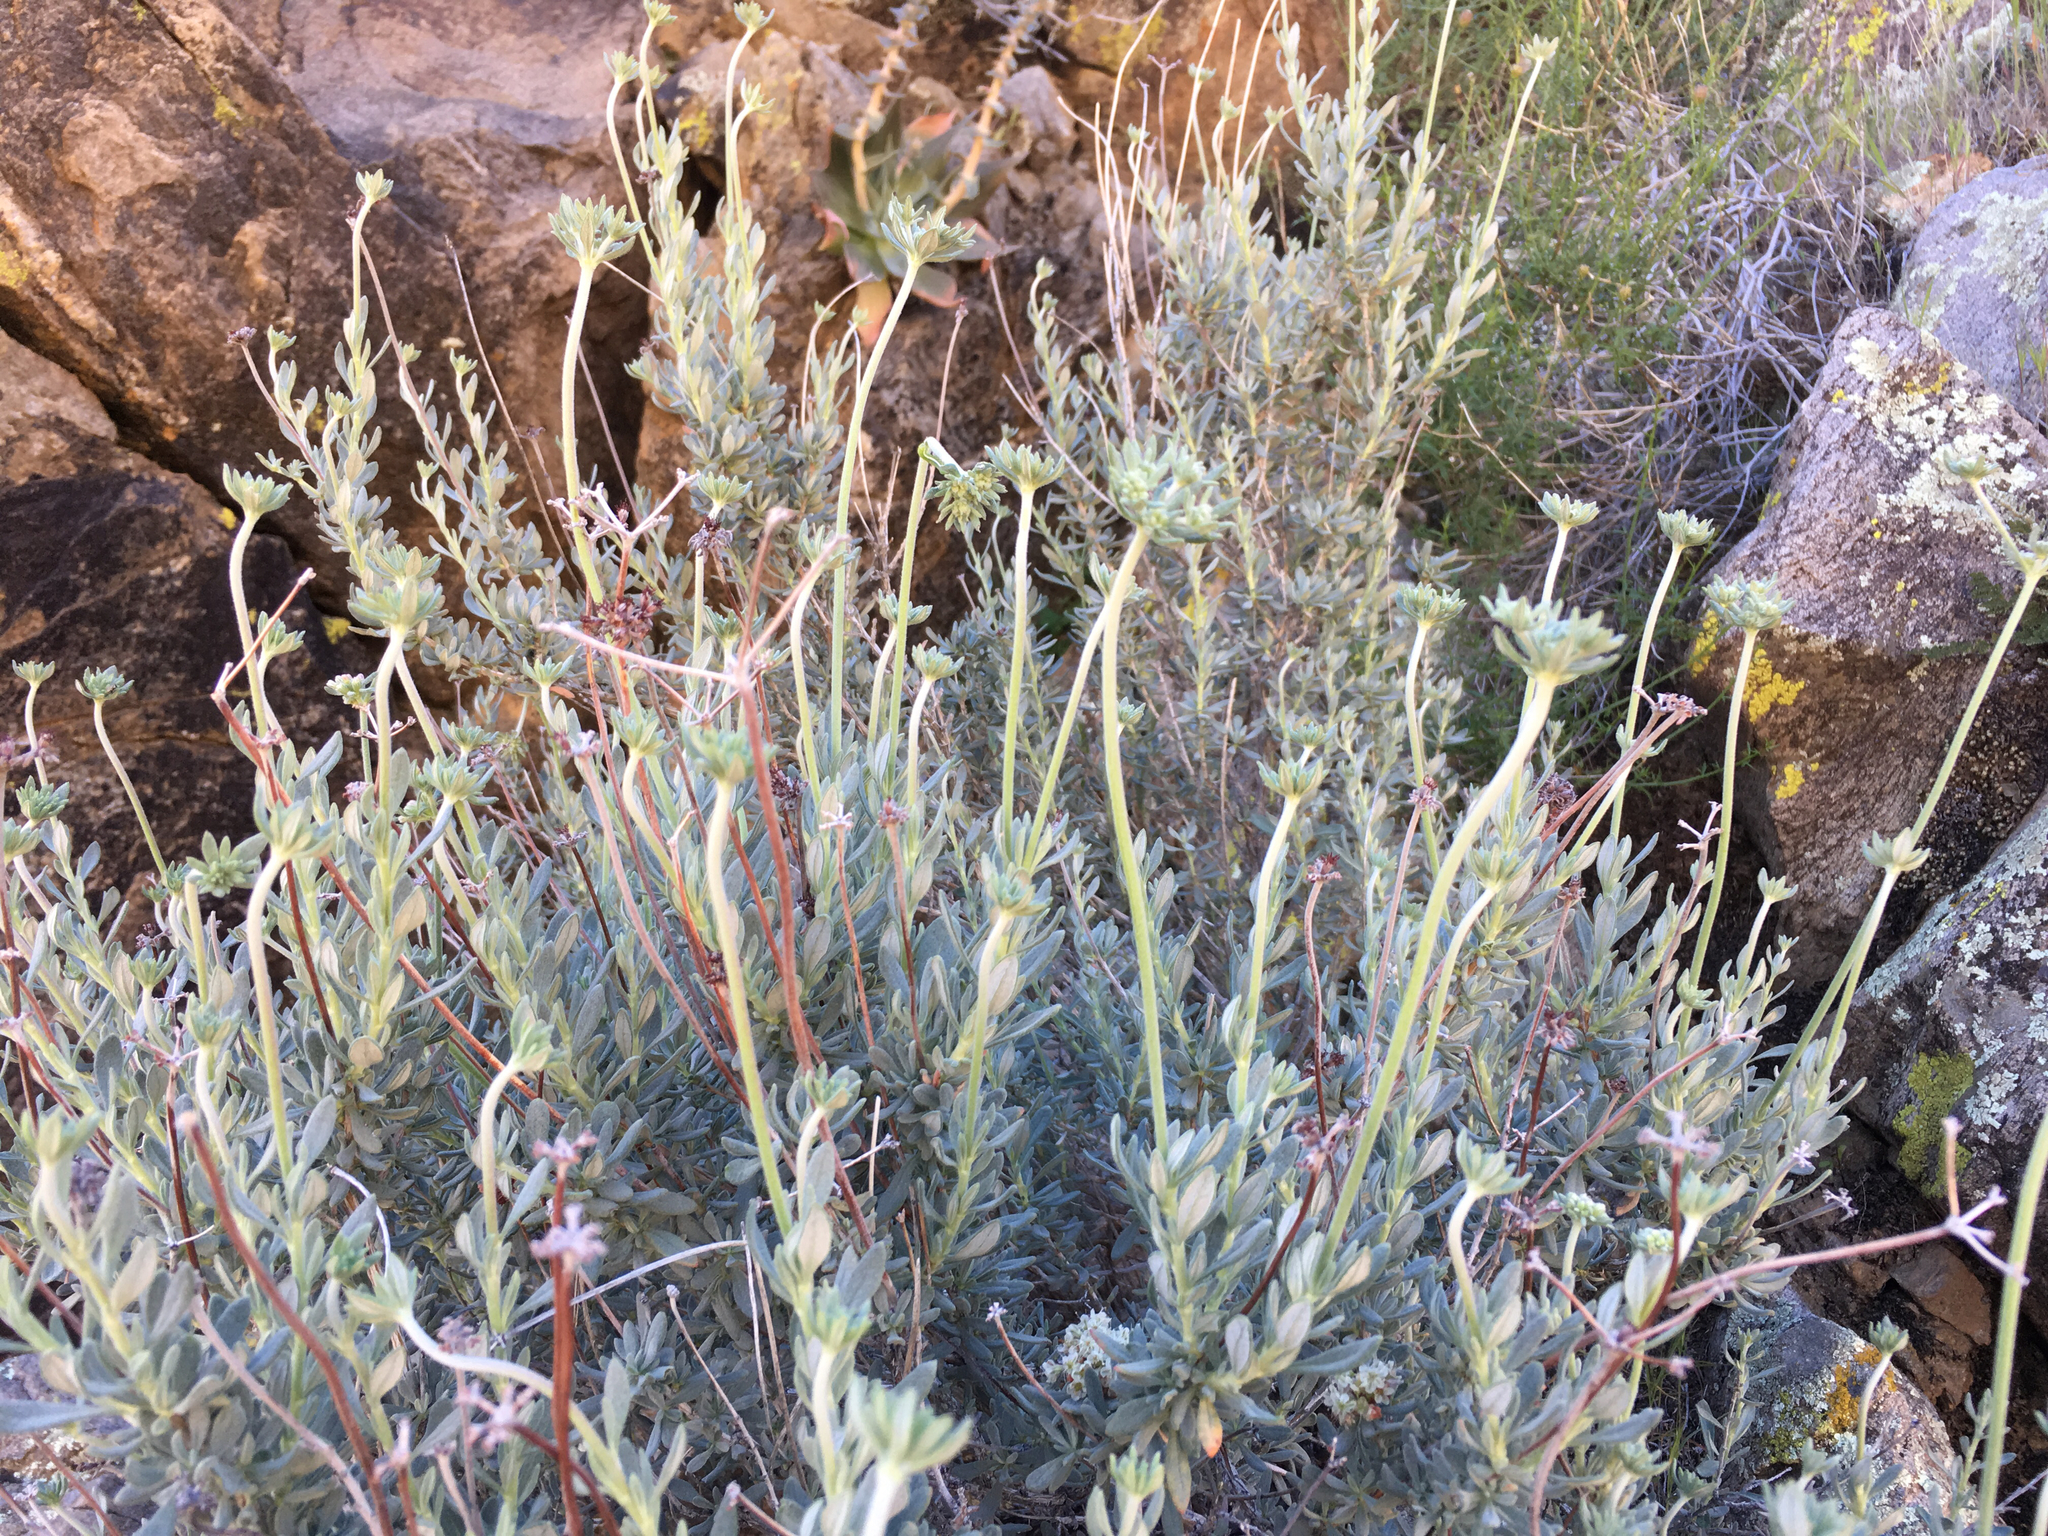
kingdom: Plantae
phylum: Tracheophyta
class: Magnoliopsida
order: Caryophyllales
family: Polygonaceae
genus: Eriogonum
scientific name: Eriogonum fasciculatum
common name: California wild buckwheat
